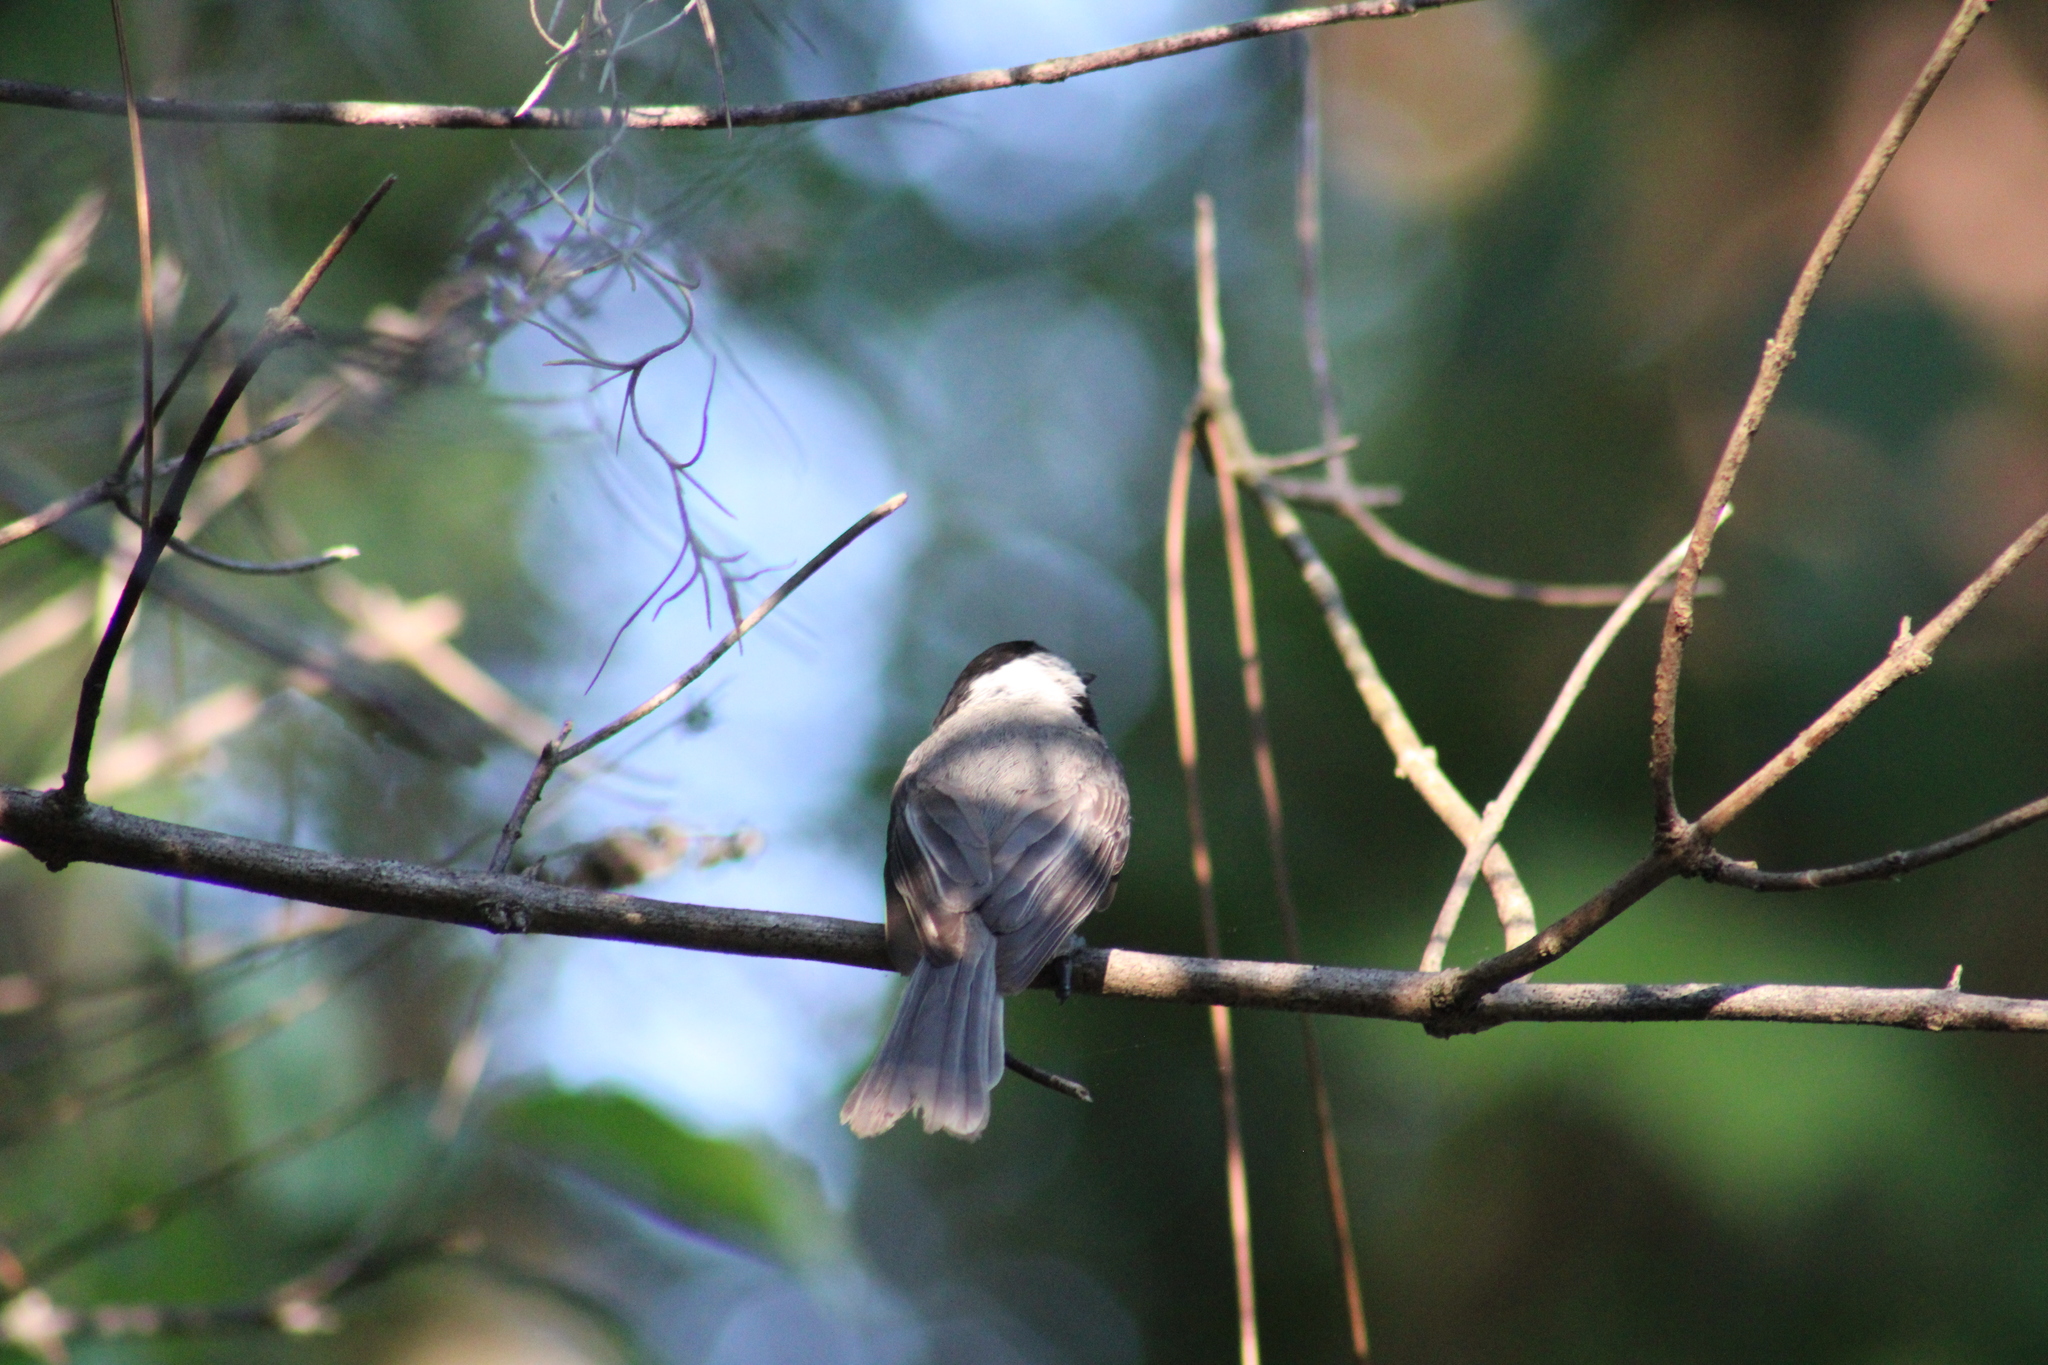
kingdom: Animalia
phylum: Chordata
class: Aves
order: Passeriformes
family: Paridae
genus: Poecile
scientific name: Poecile carolinensis
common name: Carolina chickadee
